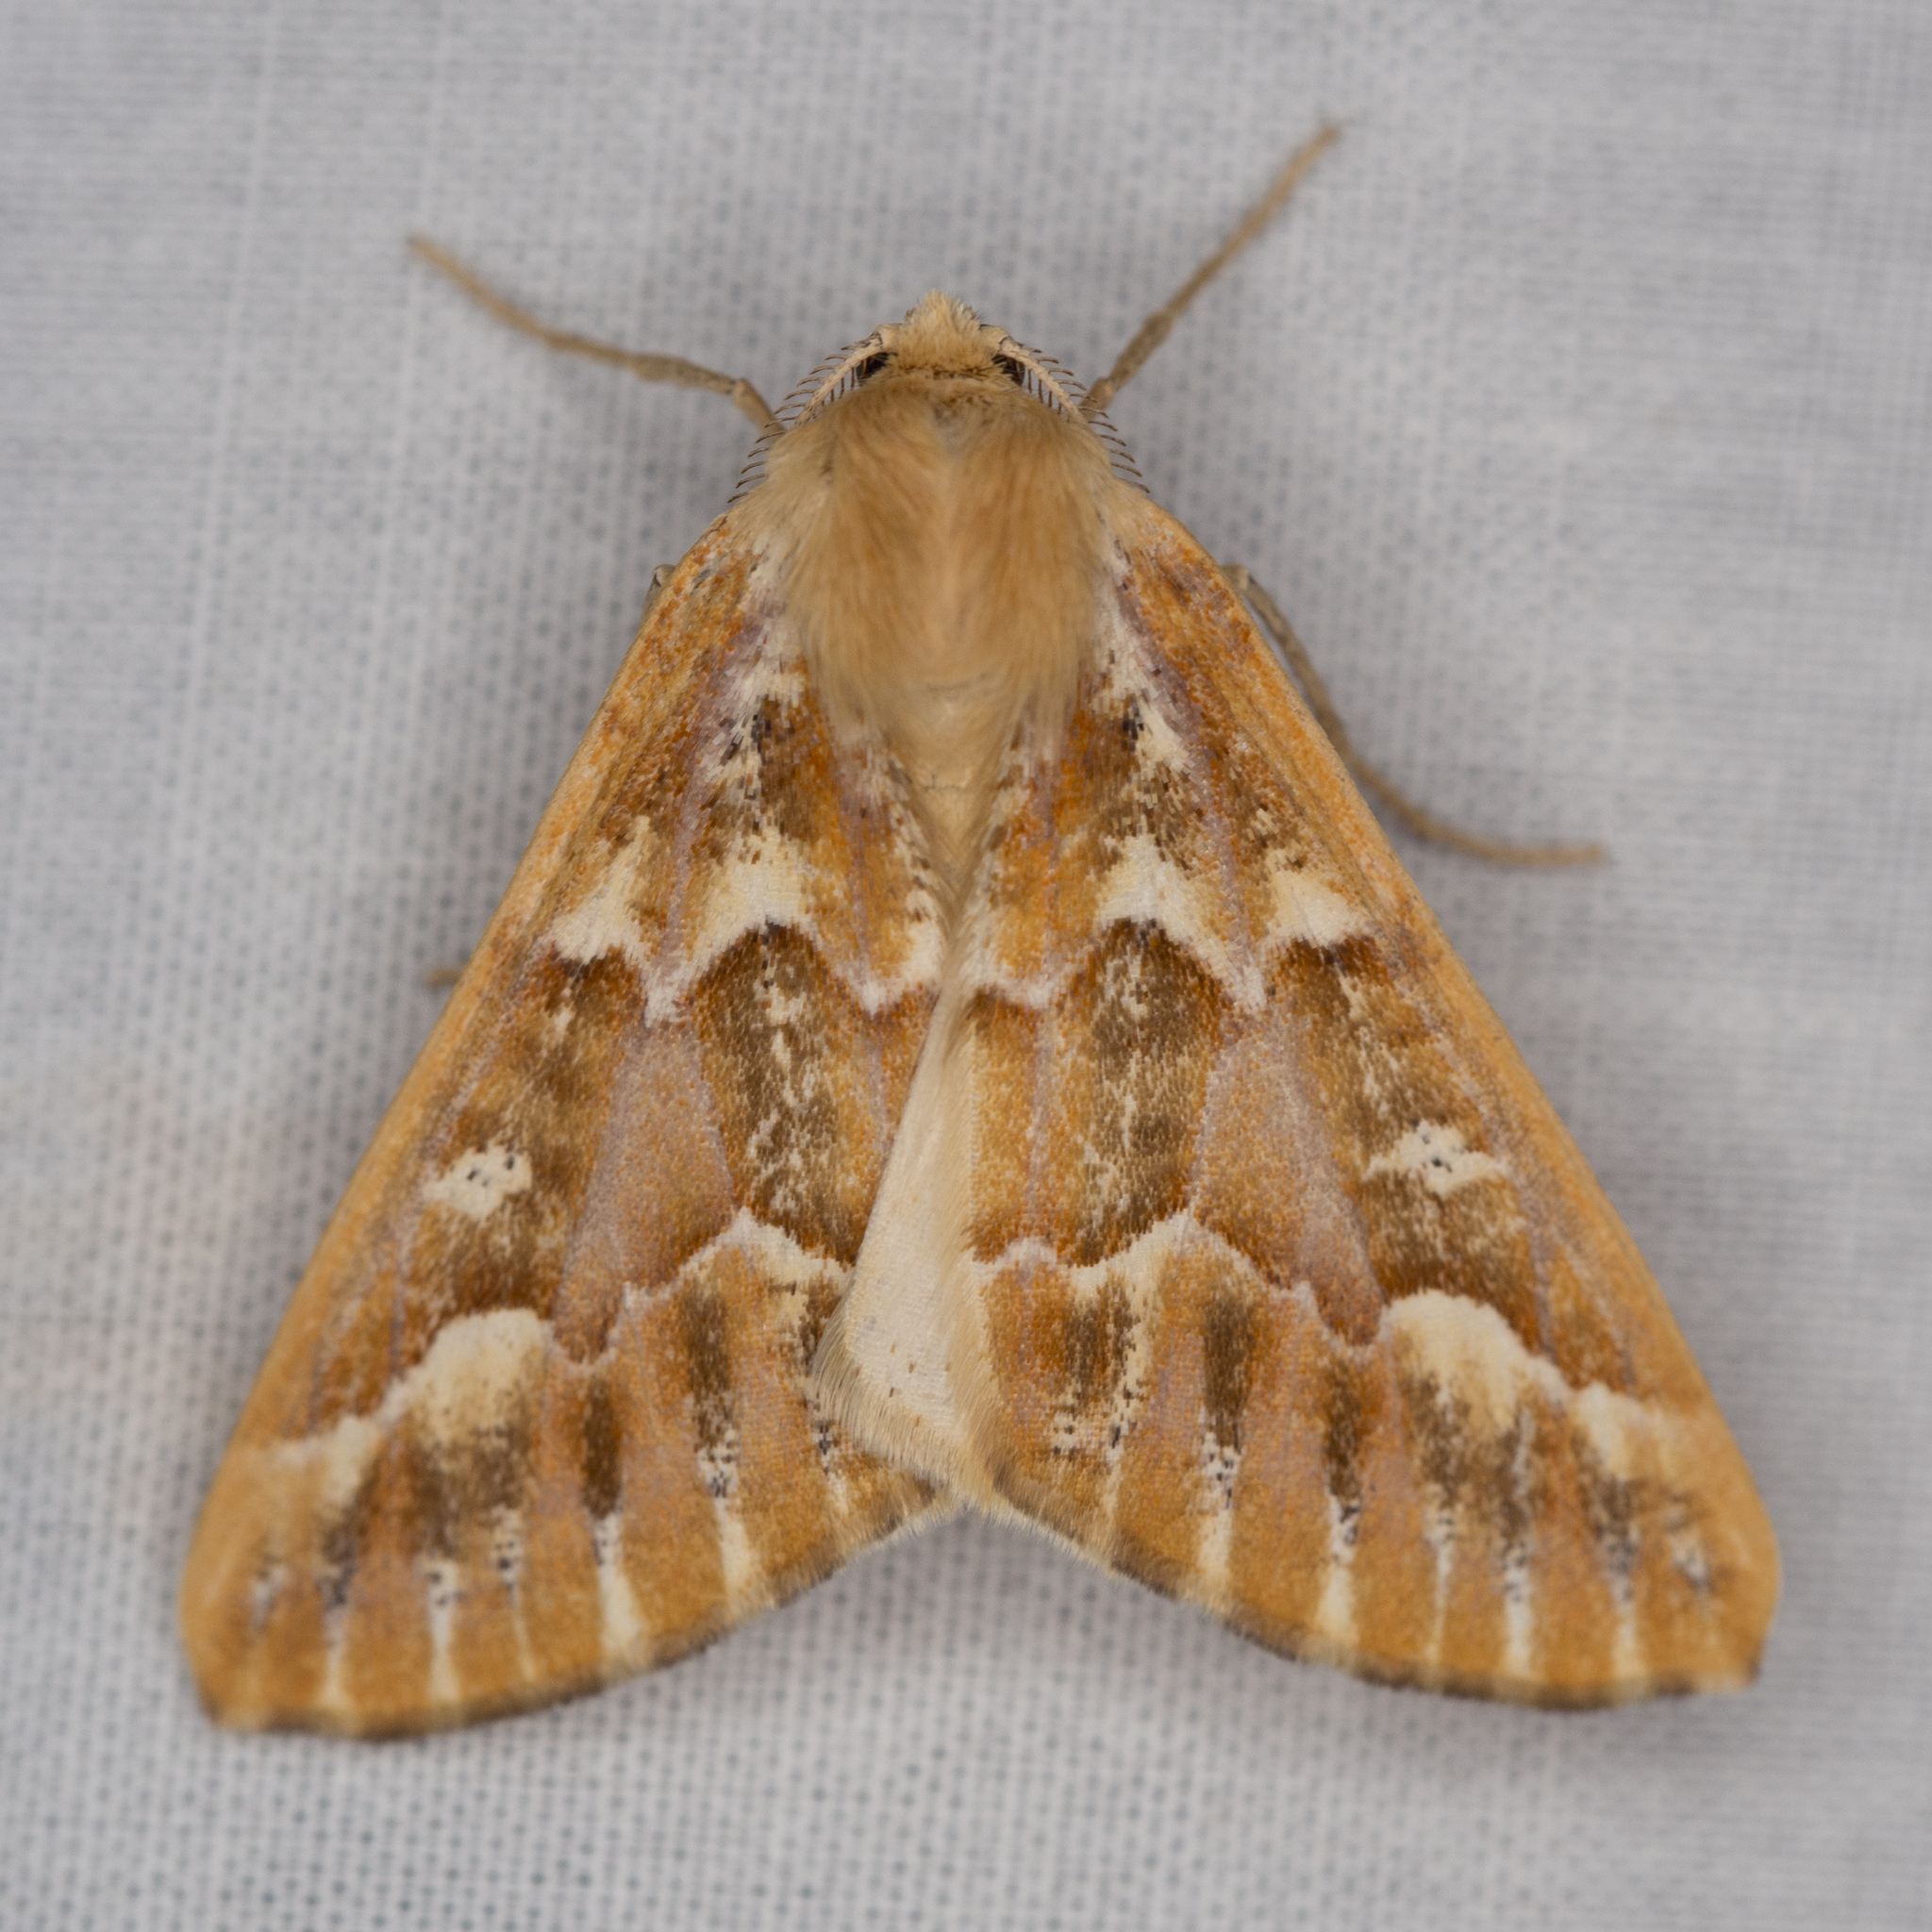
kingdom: Animalia
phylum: Arthropoda
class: Insecta
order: Lepidoptera
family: Geometridae
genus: Caripeta
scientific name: Caripeta aequaliaria
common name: Red girdle moth
